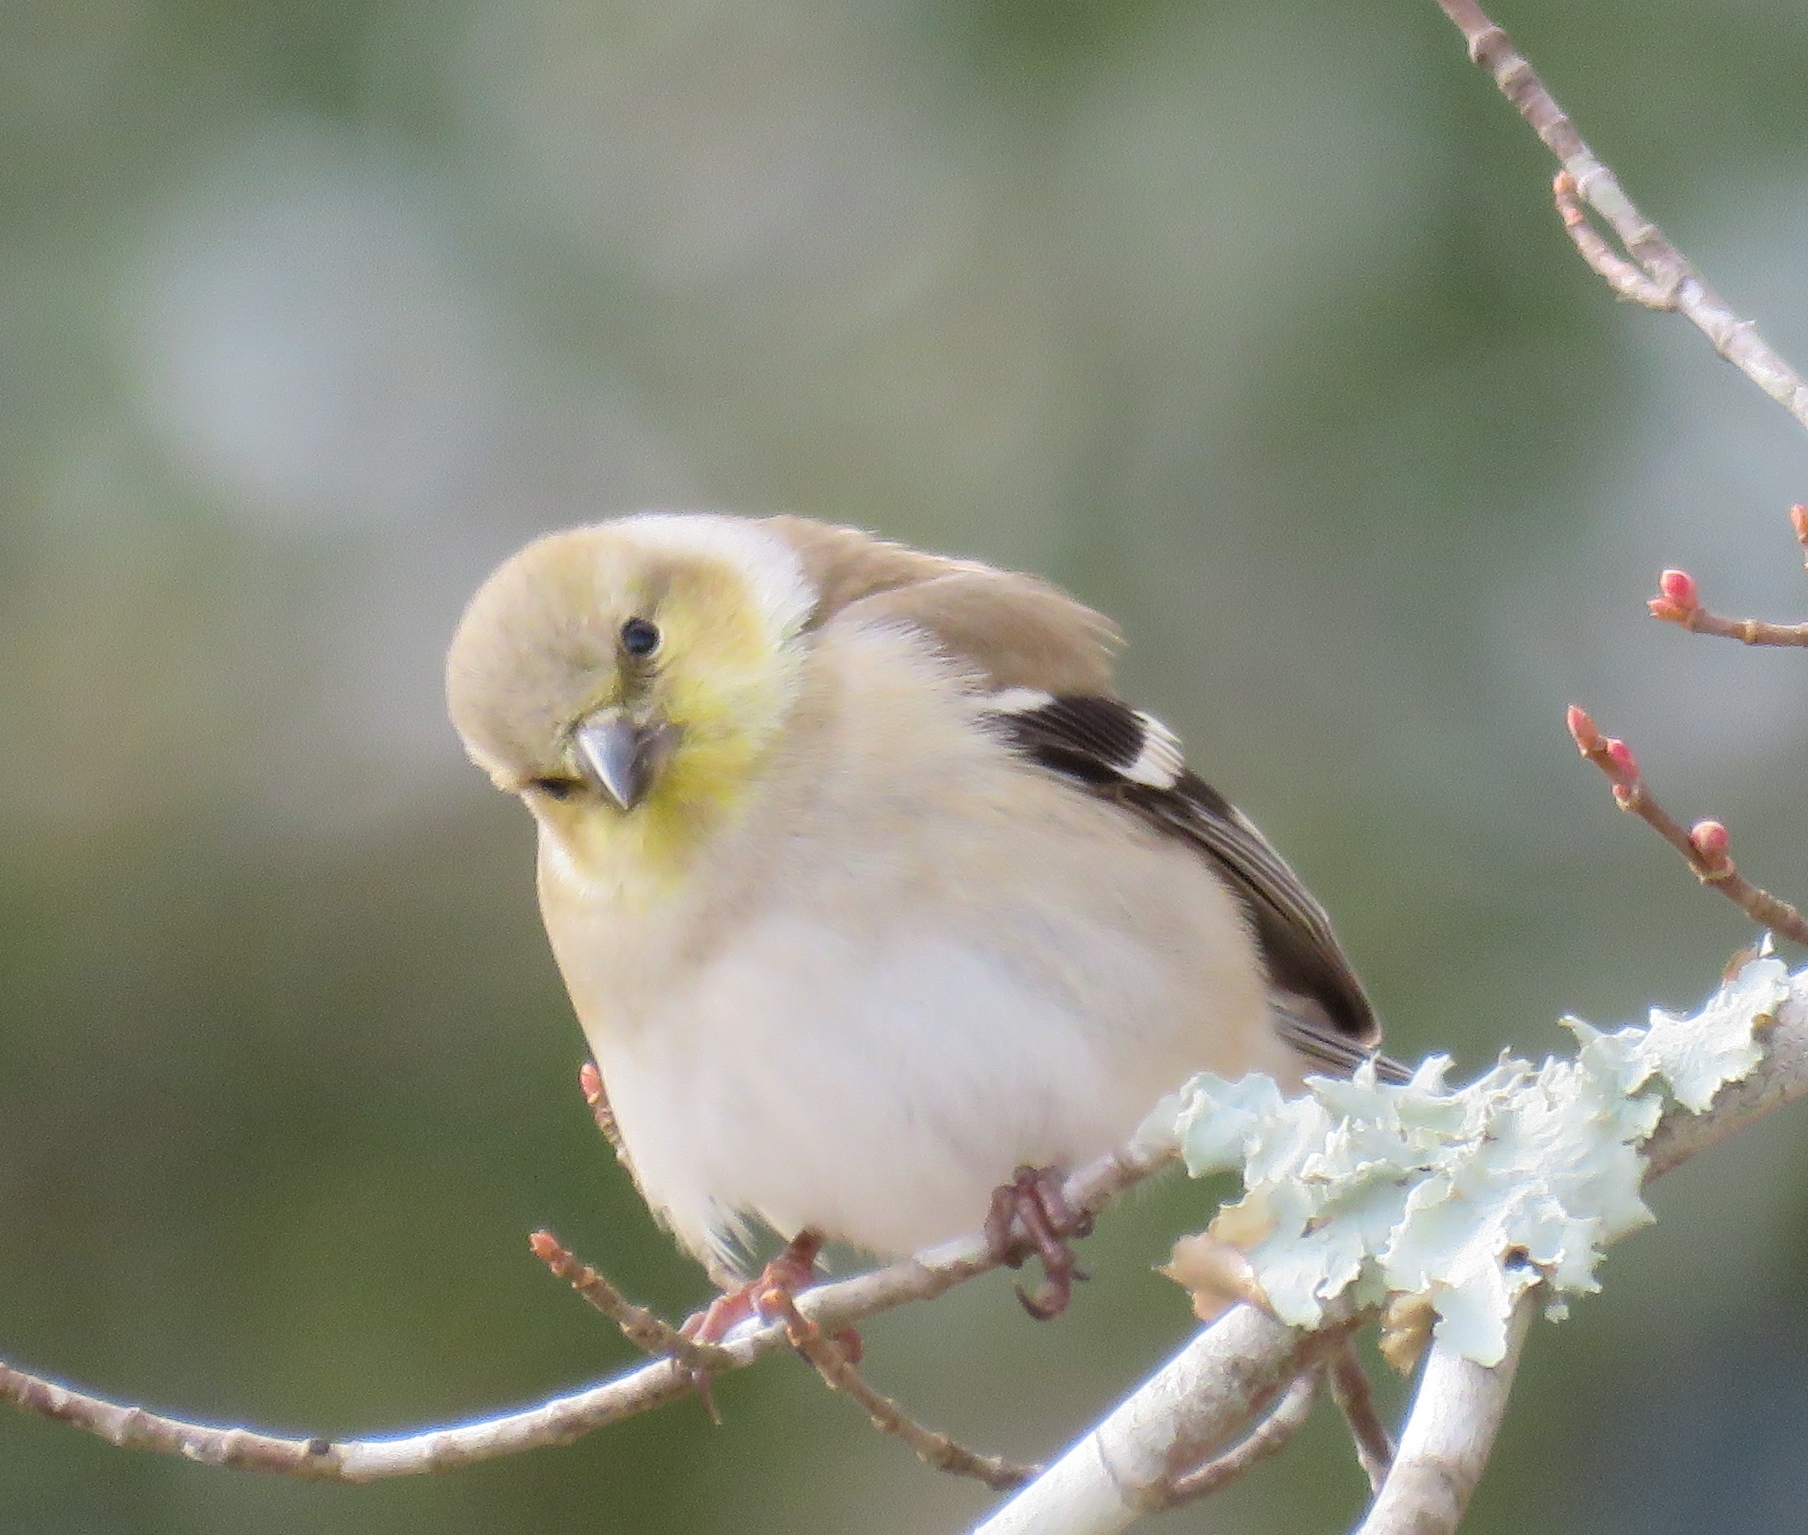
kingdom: Animalia
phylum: Chordata
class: Aves
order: Passeriformes
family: Fringillidae
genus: Spinus
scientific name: Spinus tristis
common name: American goldfinch
